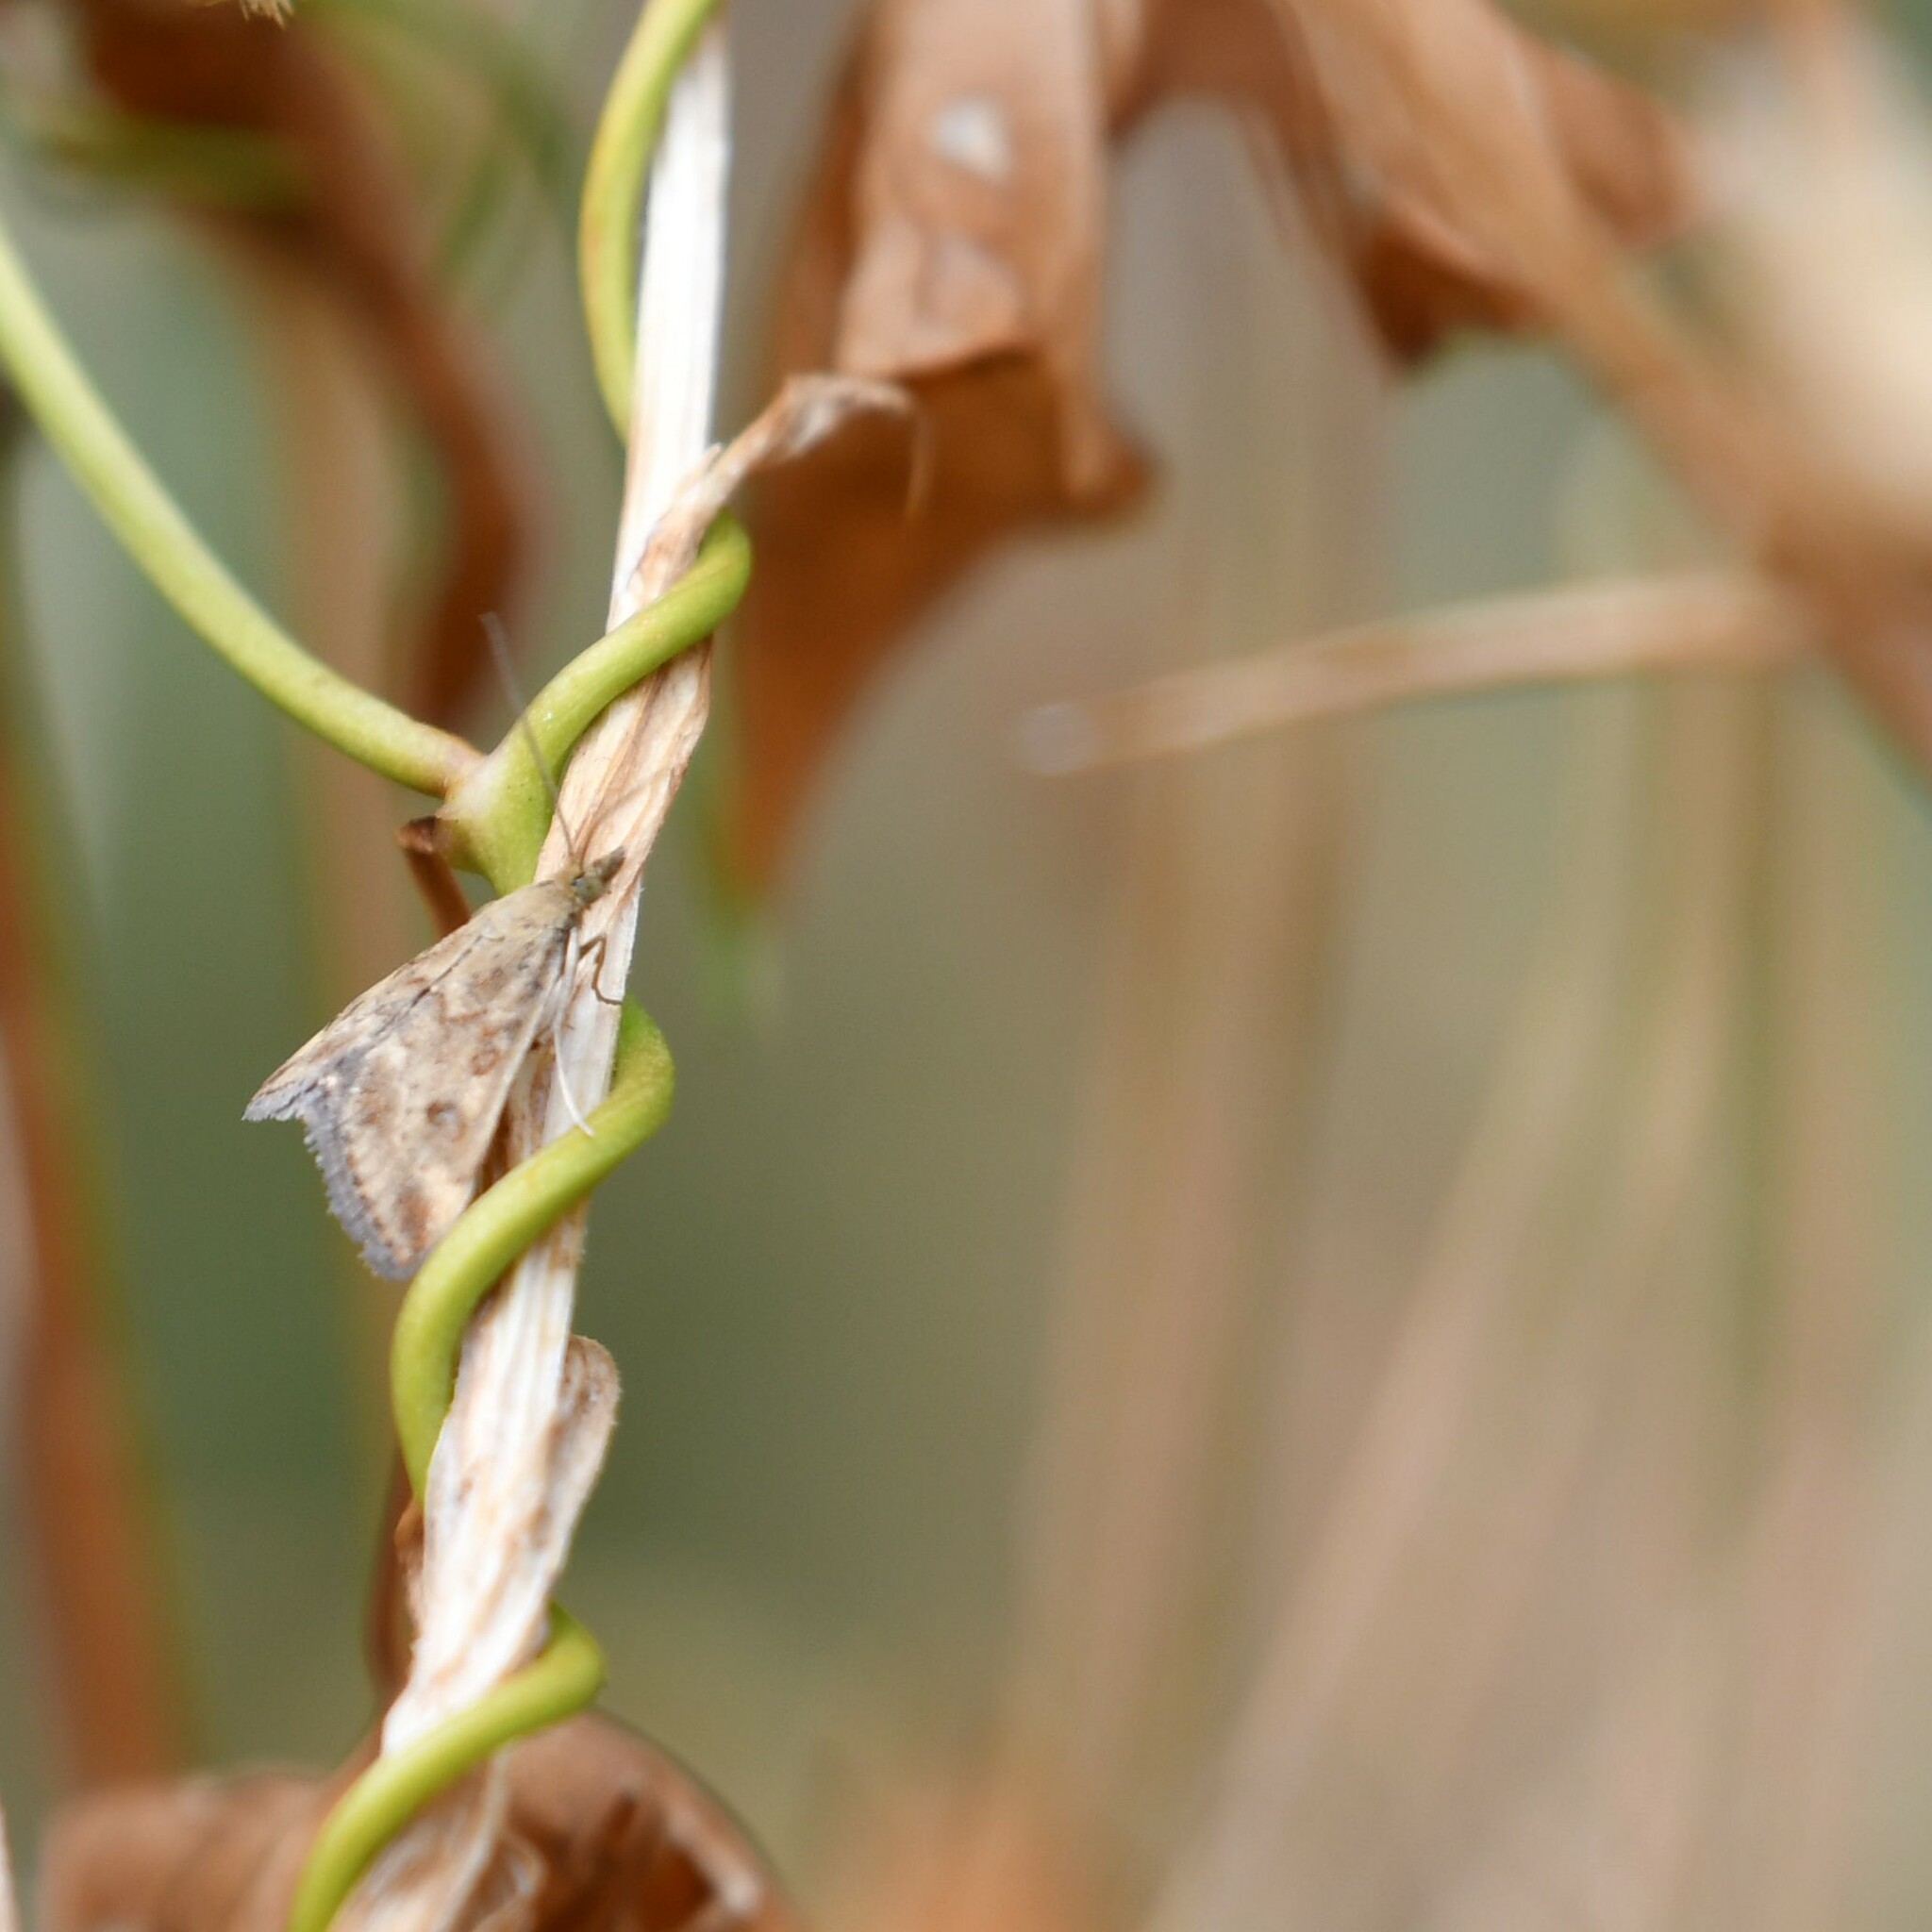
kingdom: Animalia
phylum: Arthropoda
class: Insecta
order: Lepidoptera
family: Crambidae
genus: Pyrausta
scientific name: Pyrausta despicata
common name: Straw-barred pearl
